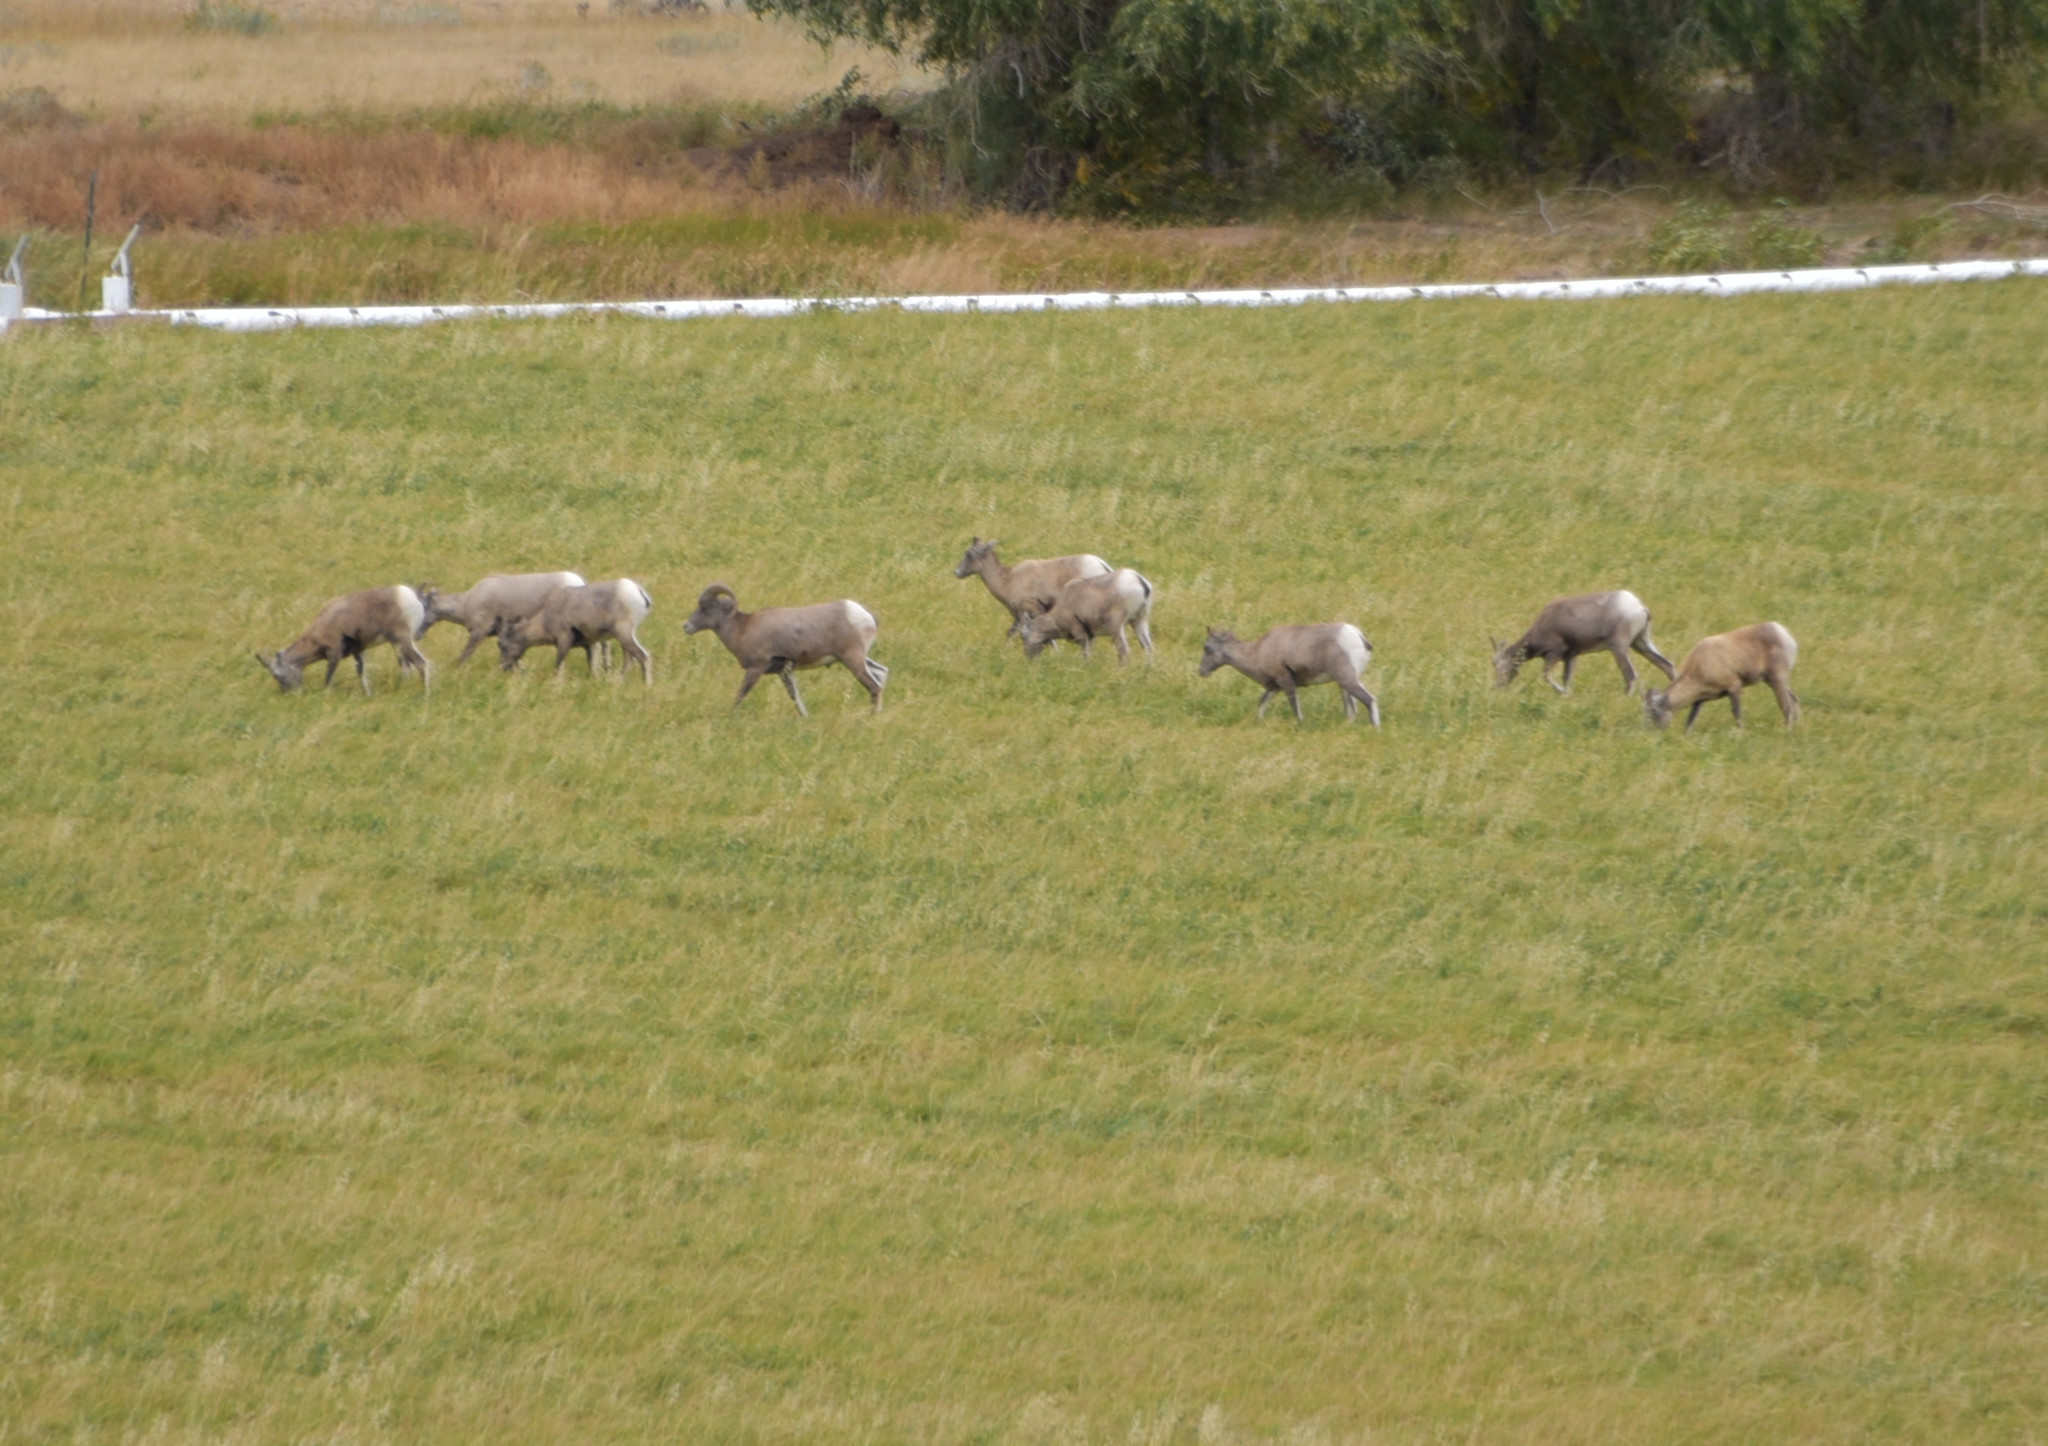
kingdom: Animalia
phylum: Chordata
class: Mammalia
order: Artiodactyla
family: Bovidae
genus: Ovis
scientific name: Ovis canadensis
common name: Bighorn sheep
